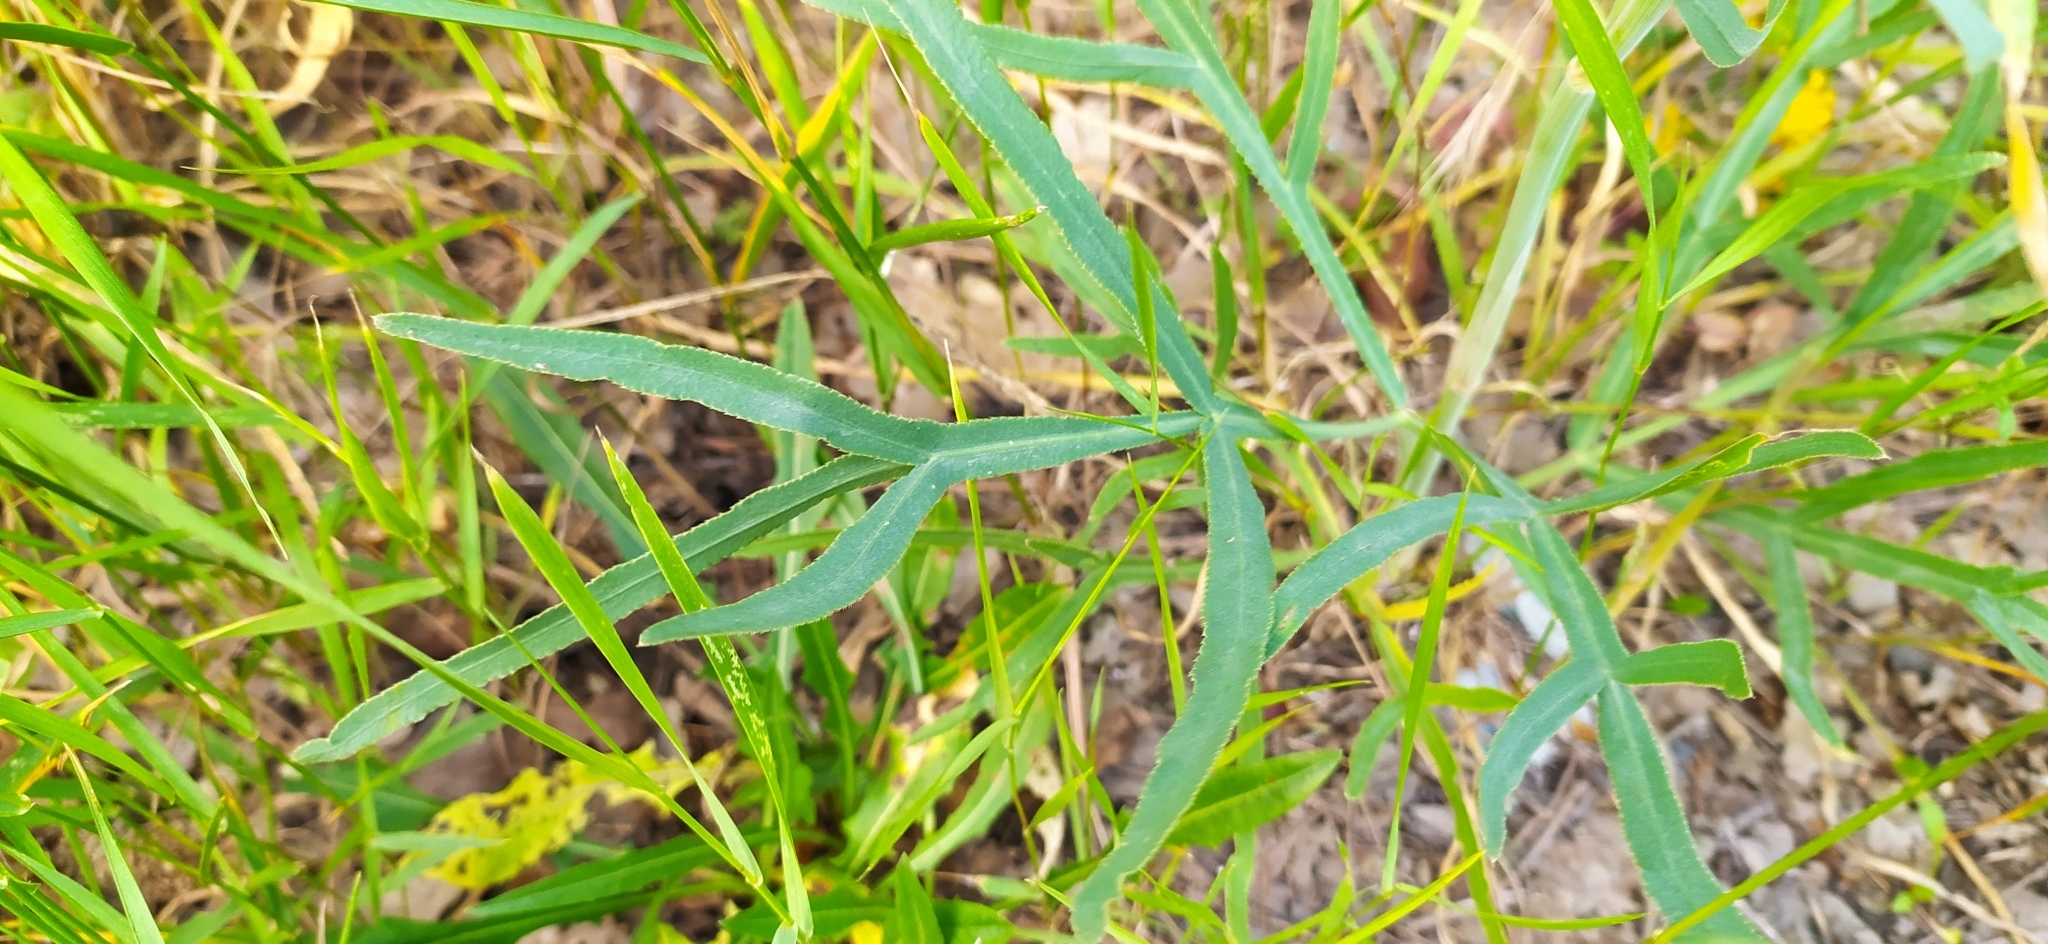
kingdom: Plantae
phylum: Tracheophyta
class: Magnoliopsida
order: Apiales
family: Apiaceae
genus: Falcaria
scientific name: Falcaria vulgaris
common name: Longleaf
